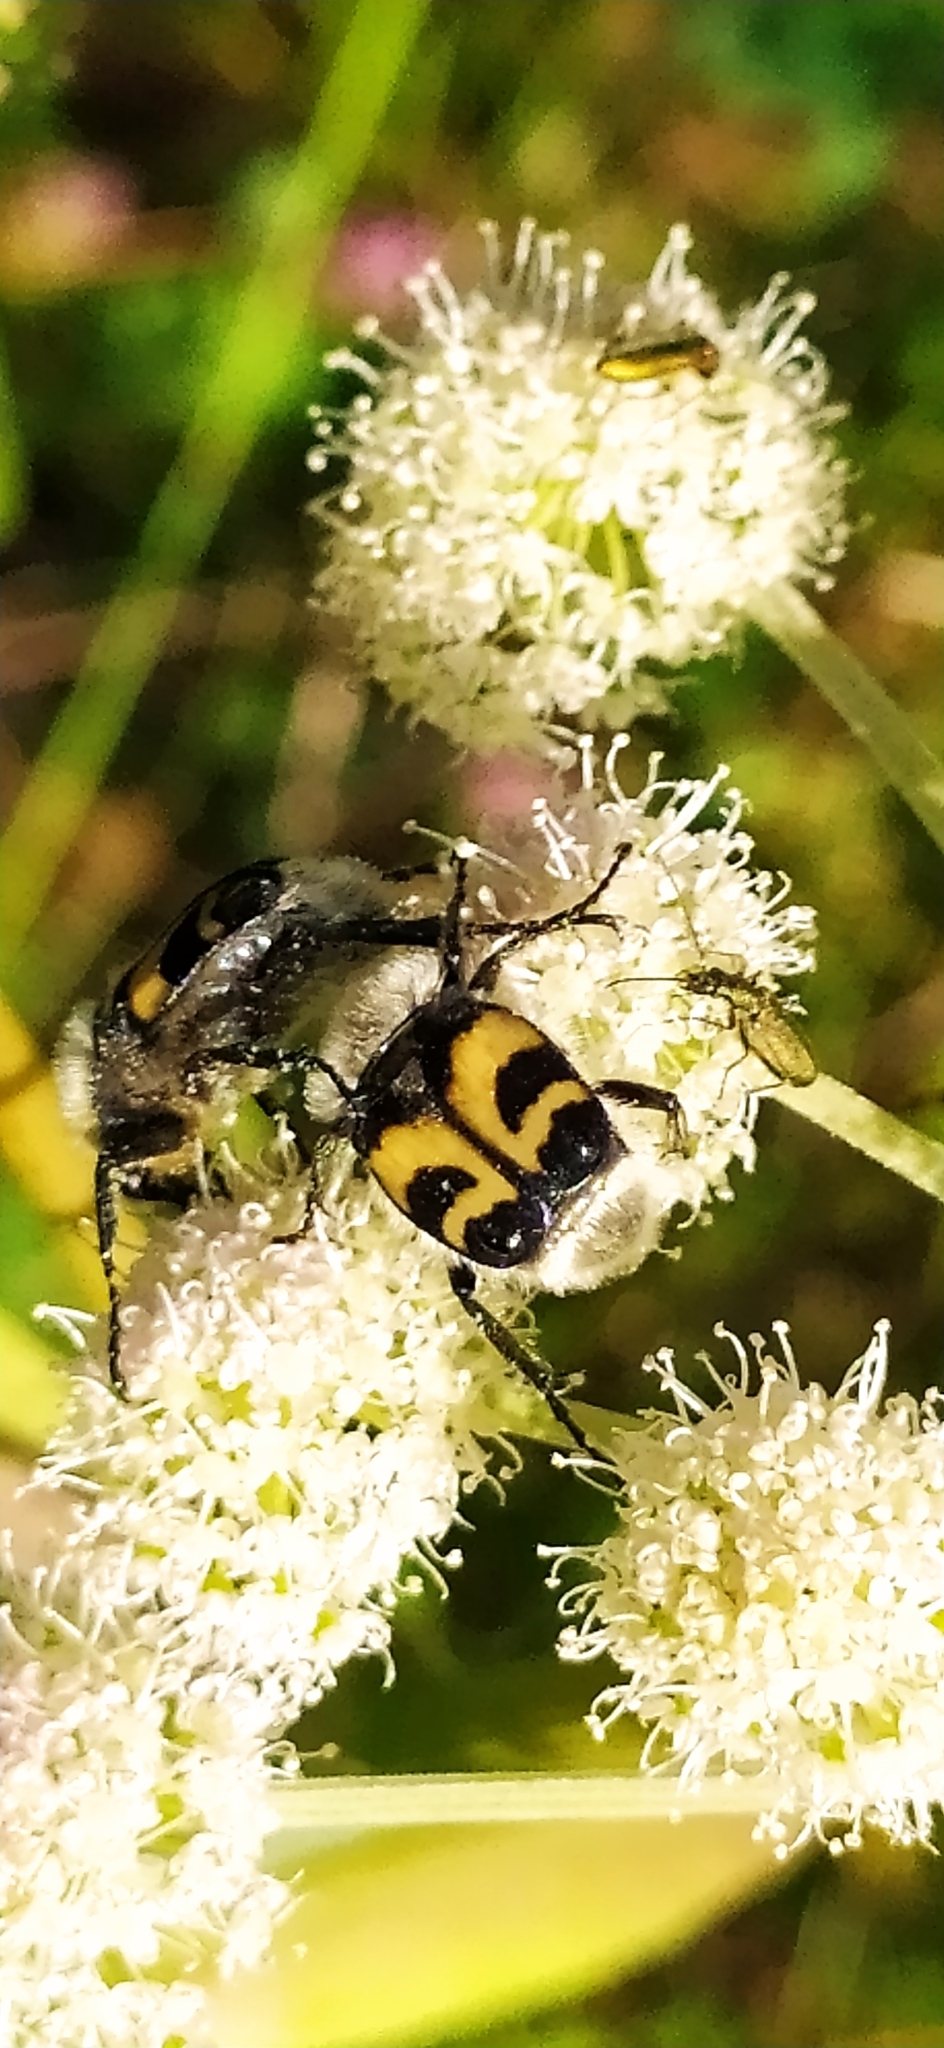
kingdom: Animalia
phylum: Arthropoda
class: Insecta
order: Coleoptera
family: Scarabaeidae
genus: Trichius
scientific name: Trichius fasciatus
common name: Bee beetle
